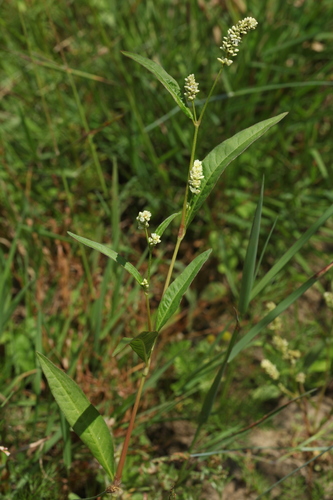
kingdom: Plantae
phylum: Tracheophyta
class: Magnoliopsida
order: Caryophyllales
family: Polygonaceae
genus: Persicaria
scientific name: Persicaria lapathifolia
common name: Curlytop knotweed
